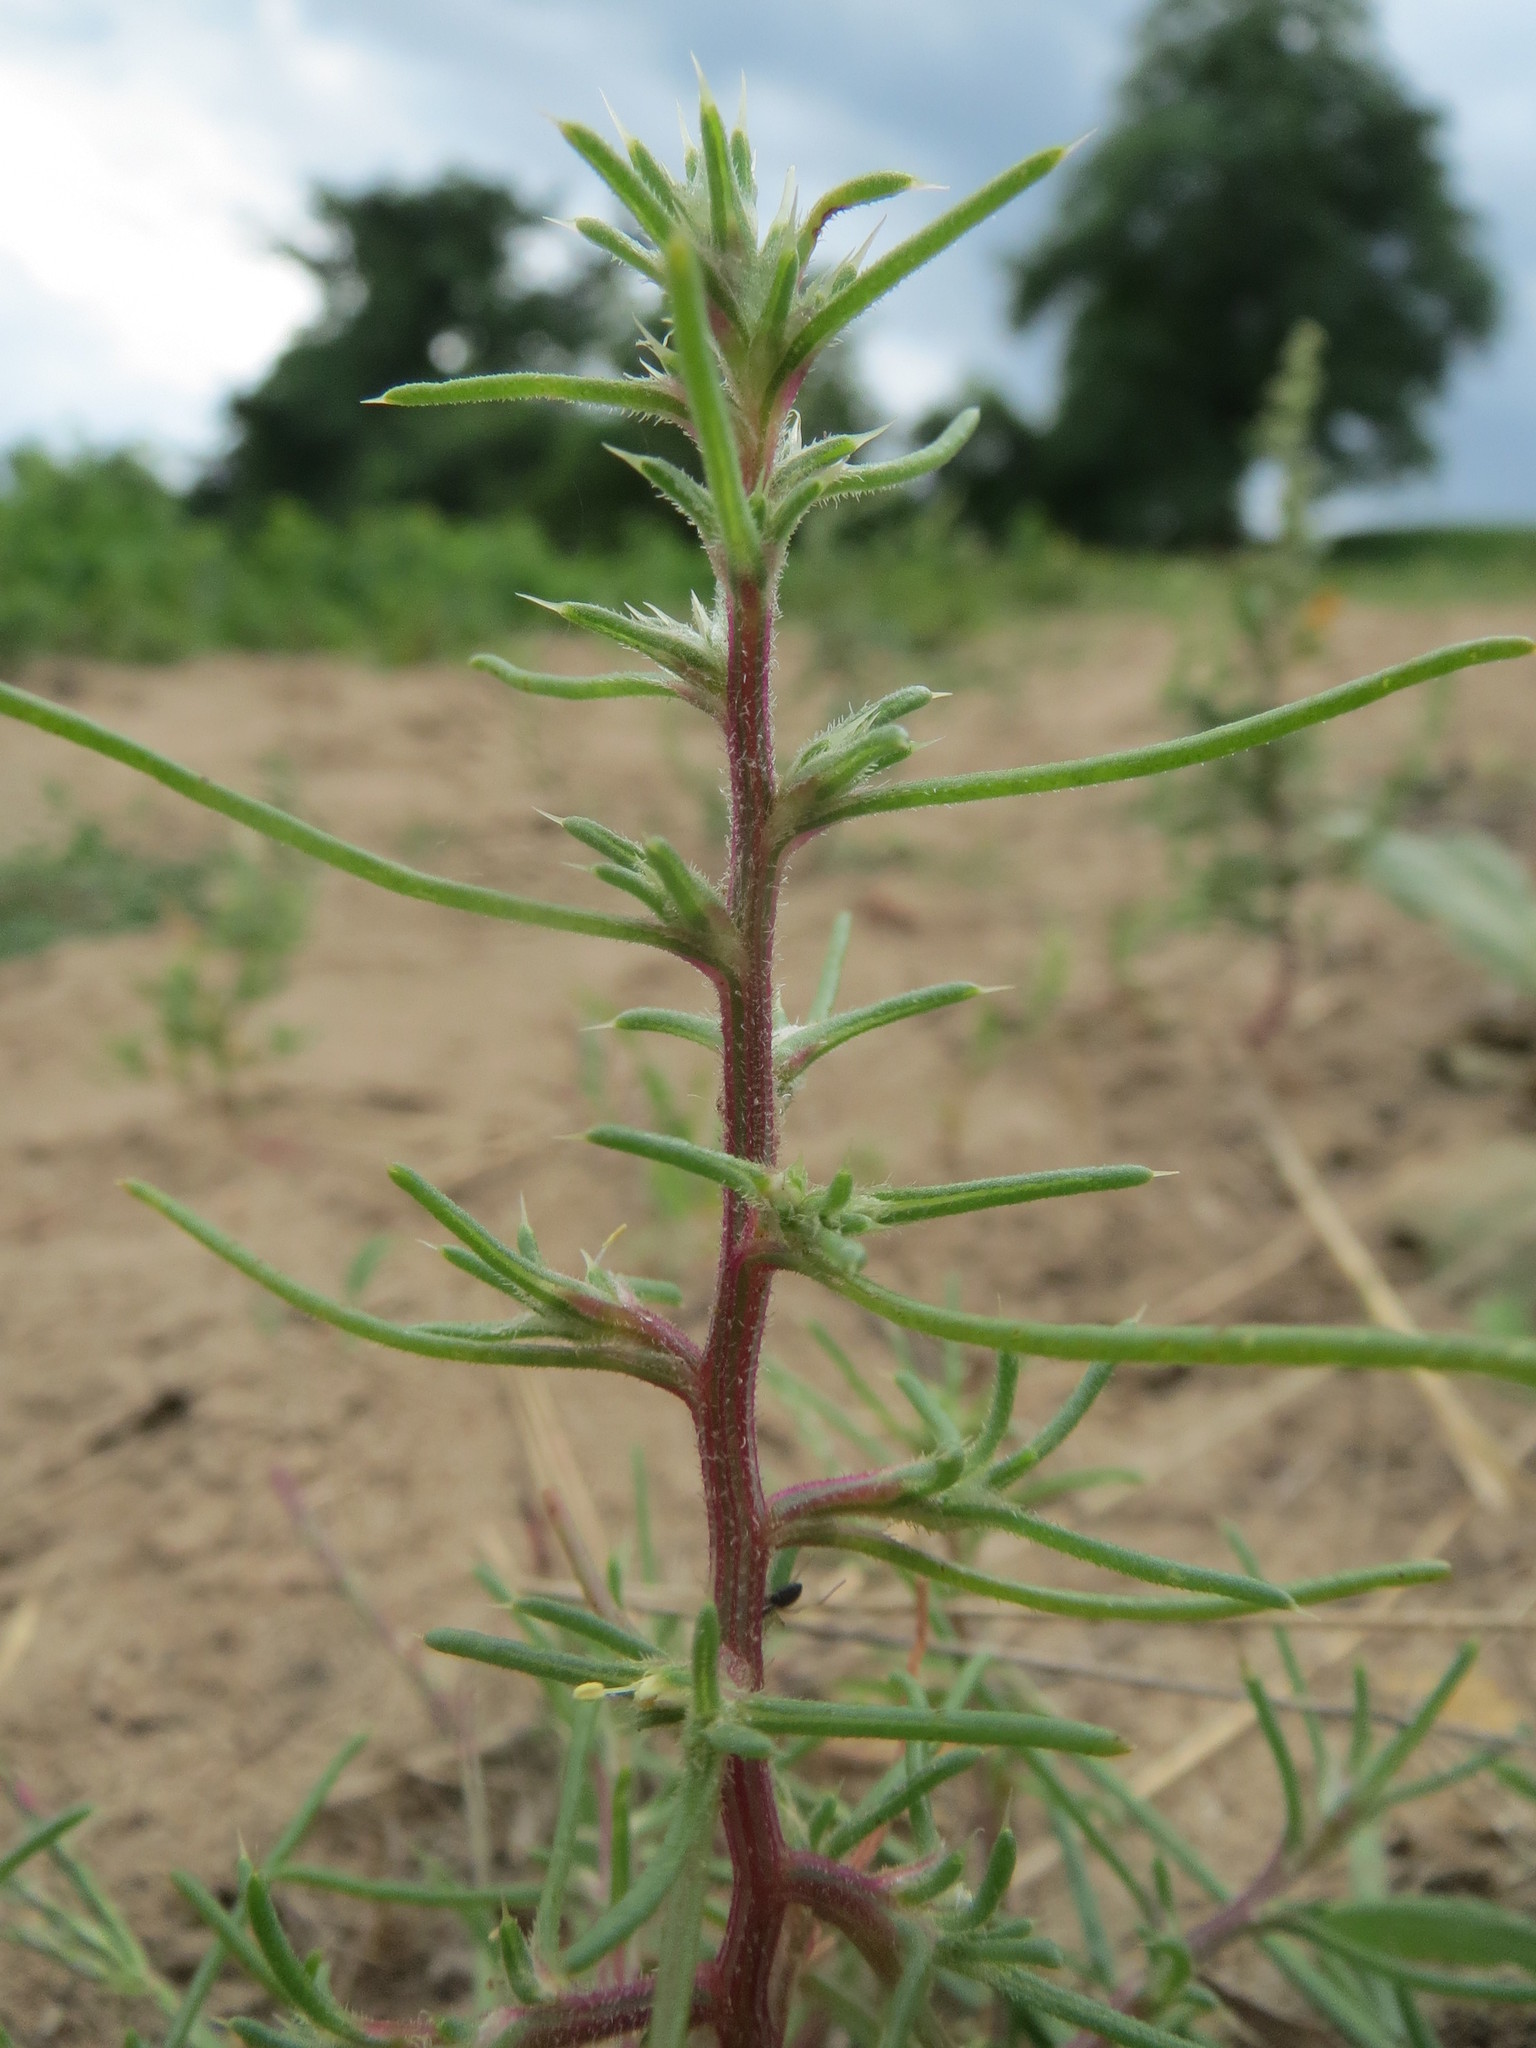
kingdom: Plantae
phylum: Tracheophyta
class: Magnoliopsida
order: Caryophyllales
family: Amaranthaceae
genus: Salsola
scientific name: Salsola tragus
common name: Prickly russian thistle
